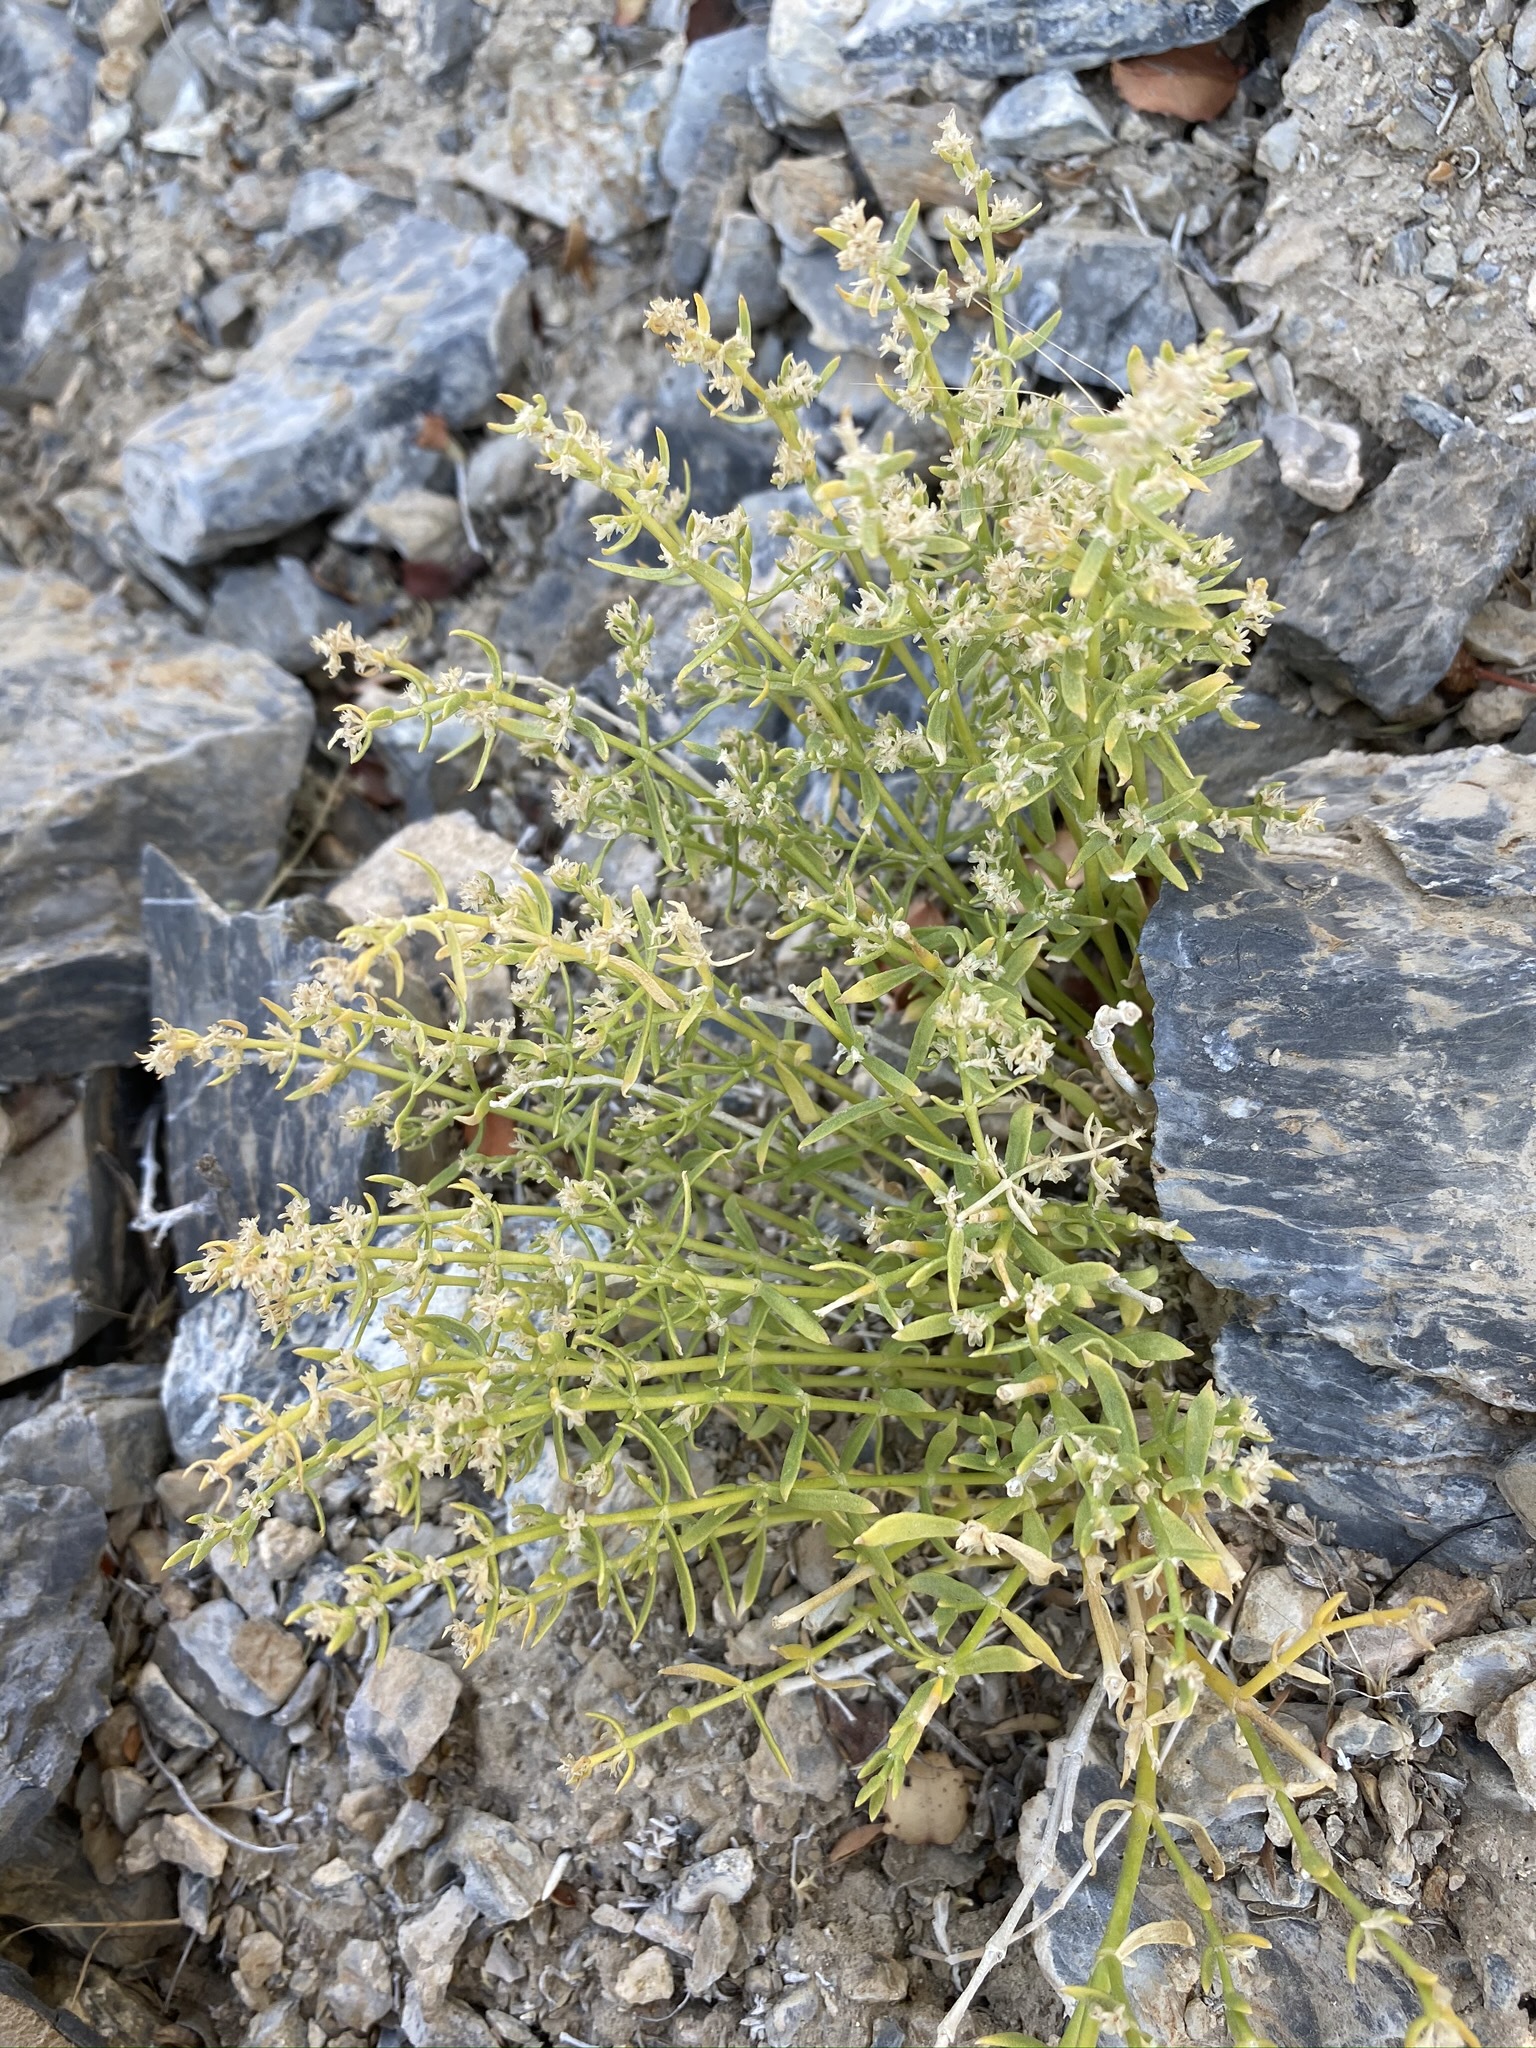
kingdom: Plantae
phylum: Tracheophyta
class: Magnoliopsida
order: Caryophyllales
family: Caryophyllaceae
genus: Scopulophila
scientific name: Scopulophila rixfordii
